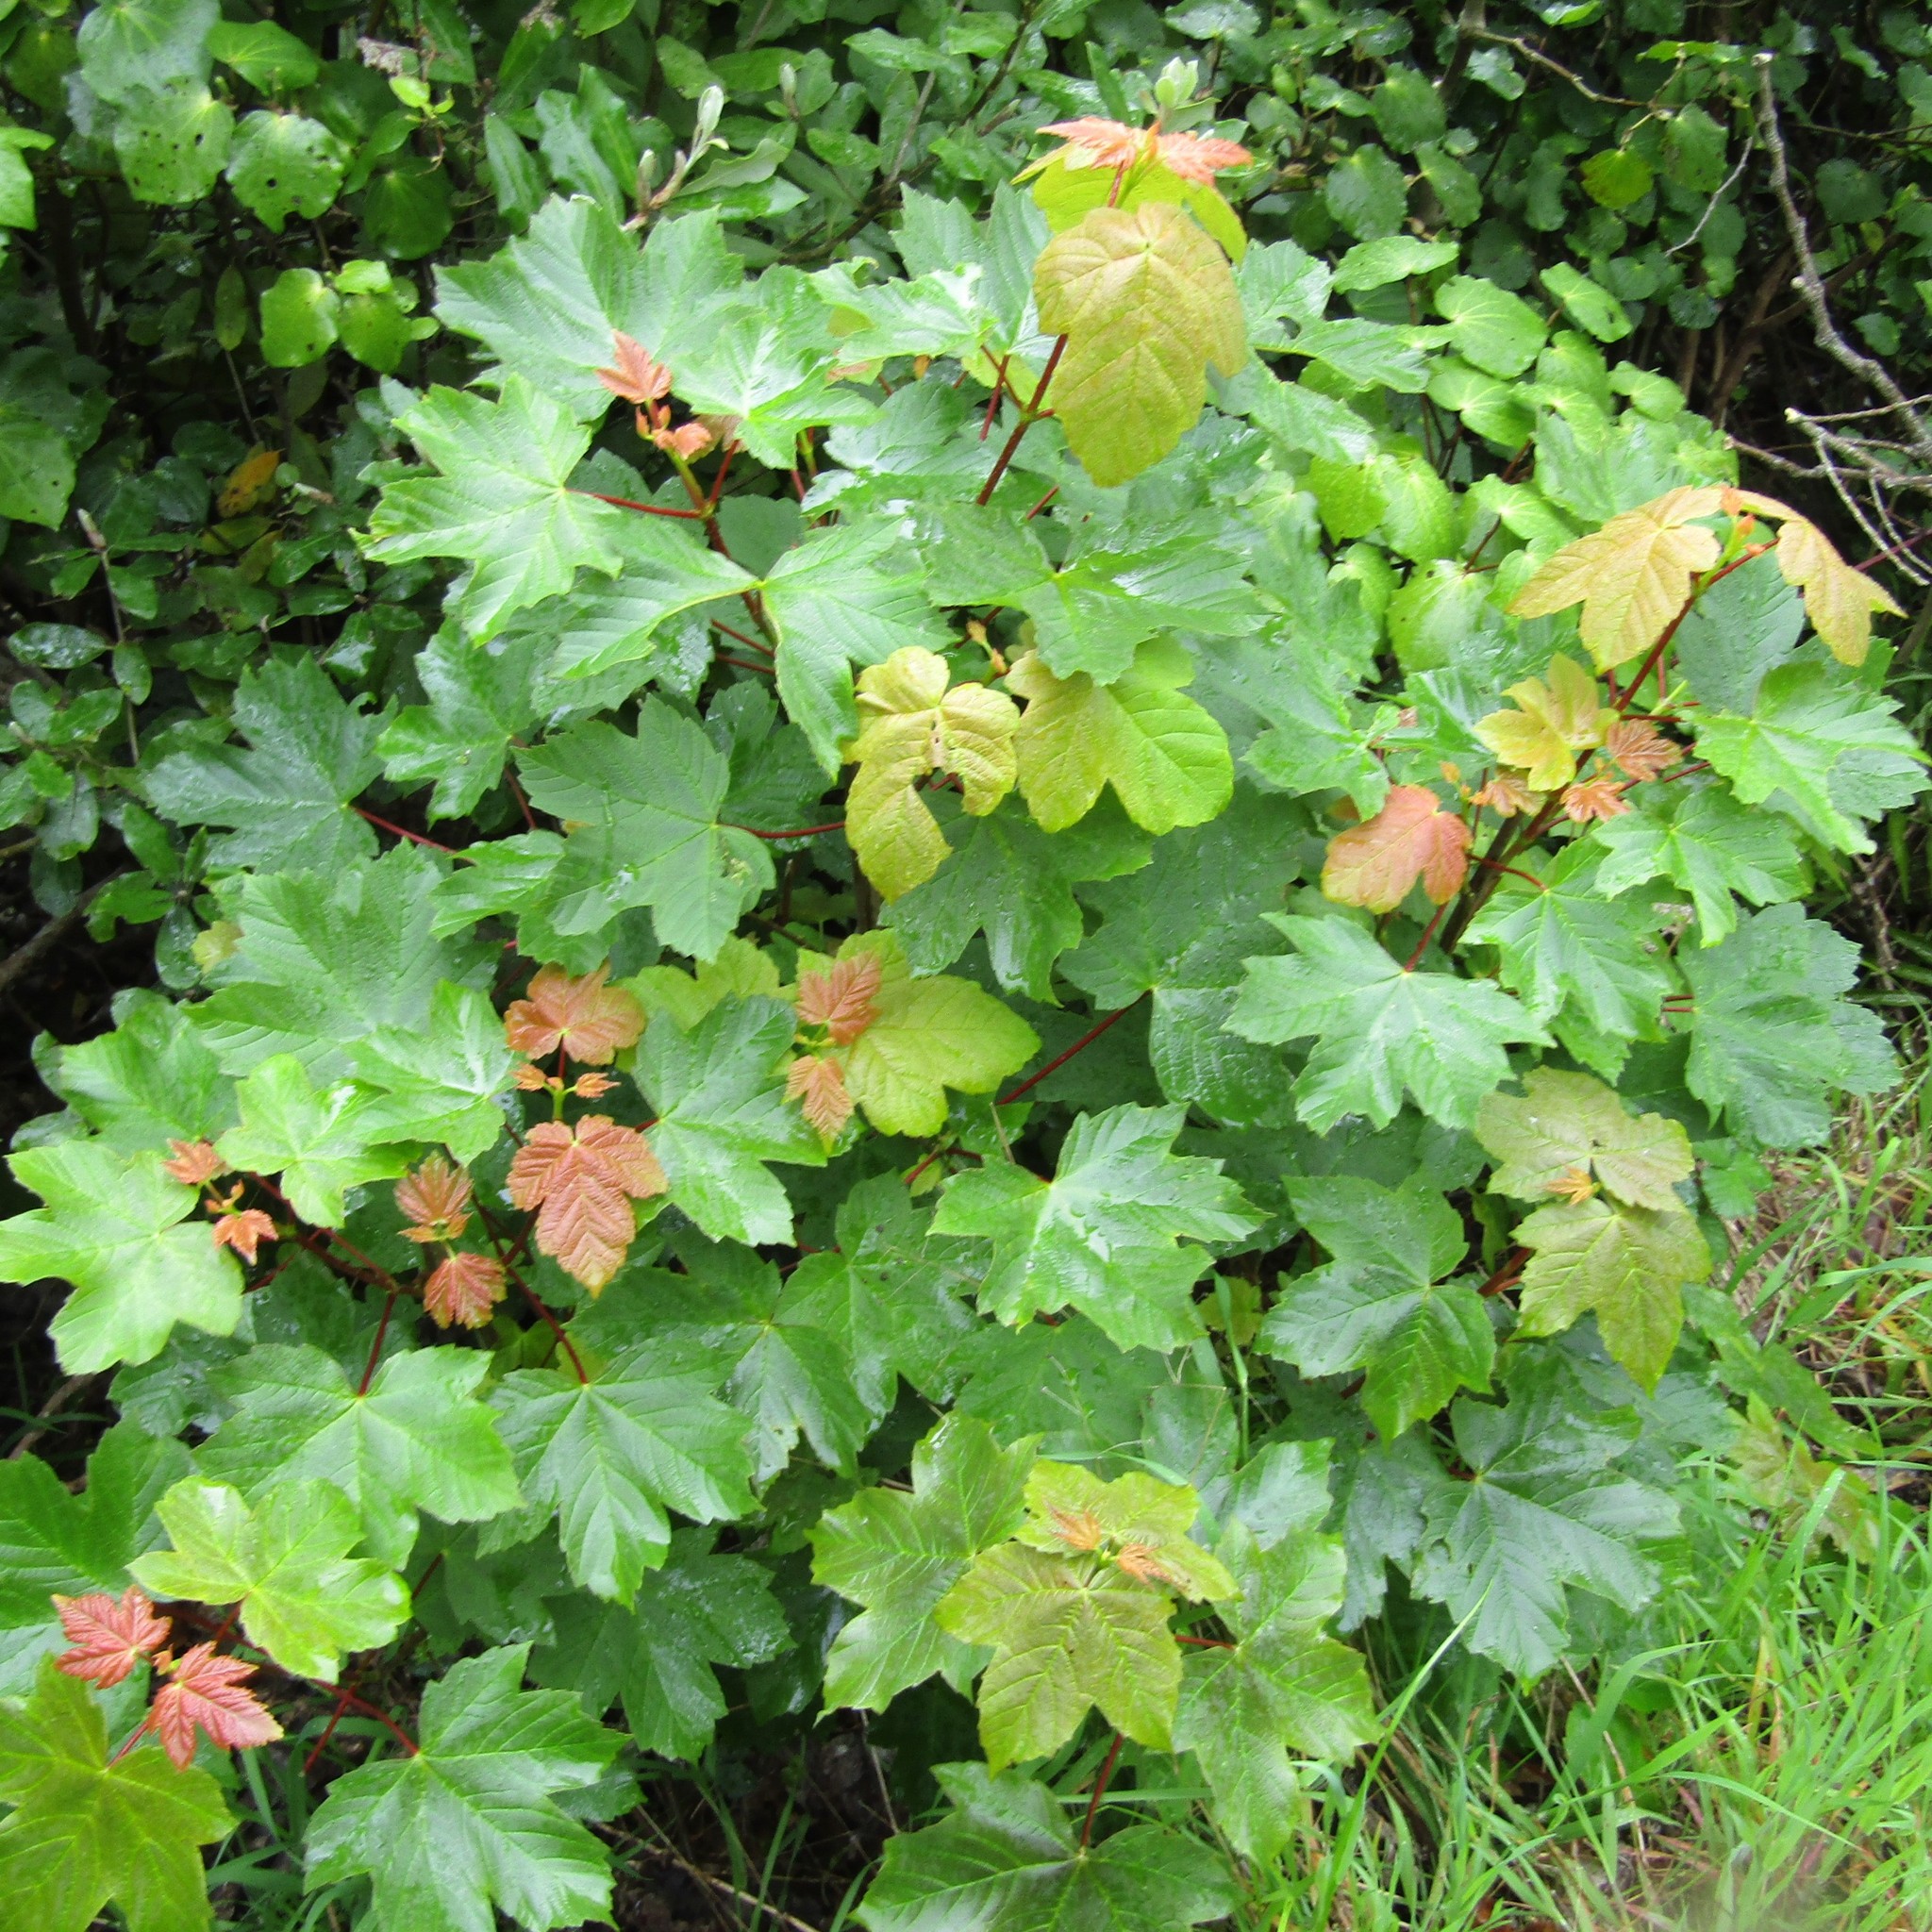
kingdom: Plantae
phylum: Tracheophyta
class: Magnoliopsida
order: Sapindales
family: Sapindaceae
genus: Acer
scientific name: Acer pseudoplatanus
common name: Sycamore
